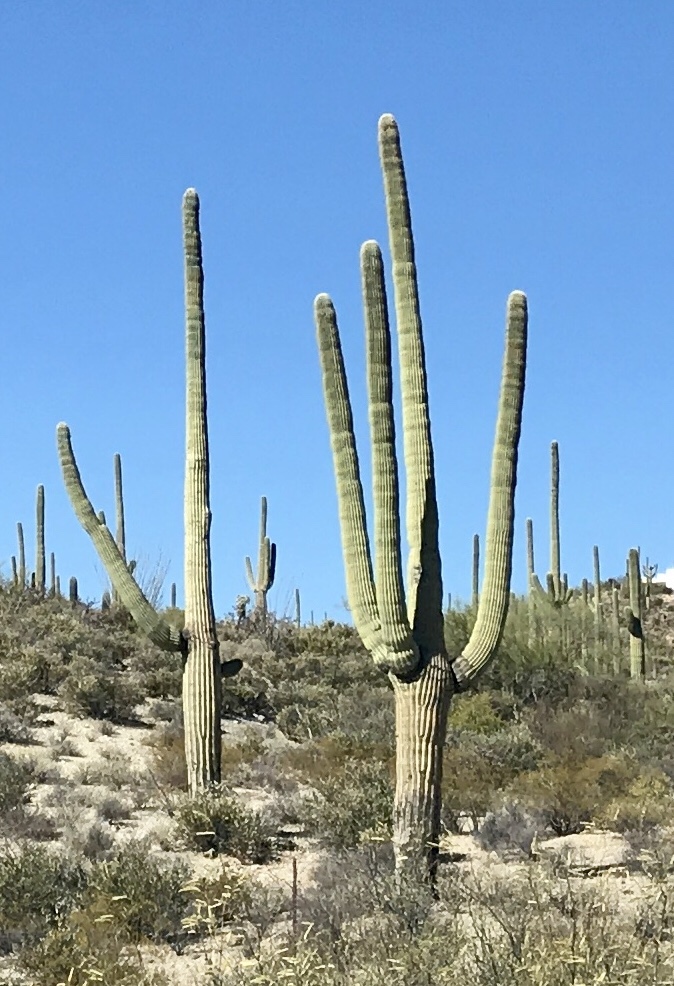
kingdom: Plantae
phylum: Tracheophyta
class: Magnoliopsida
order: Caryophyllales
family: Cactaceae
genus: Carnegiea
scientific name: Carnegiea gigantea
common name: Saguaro
